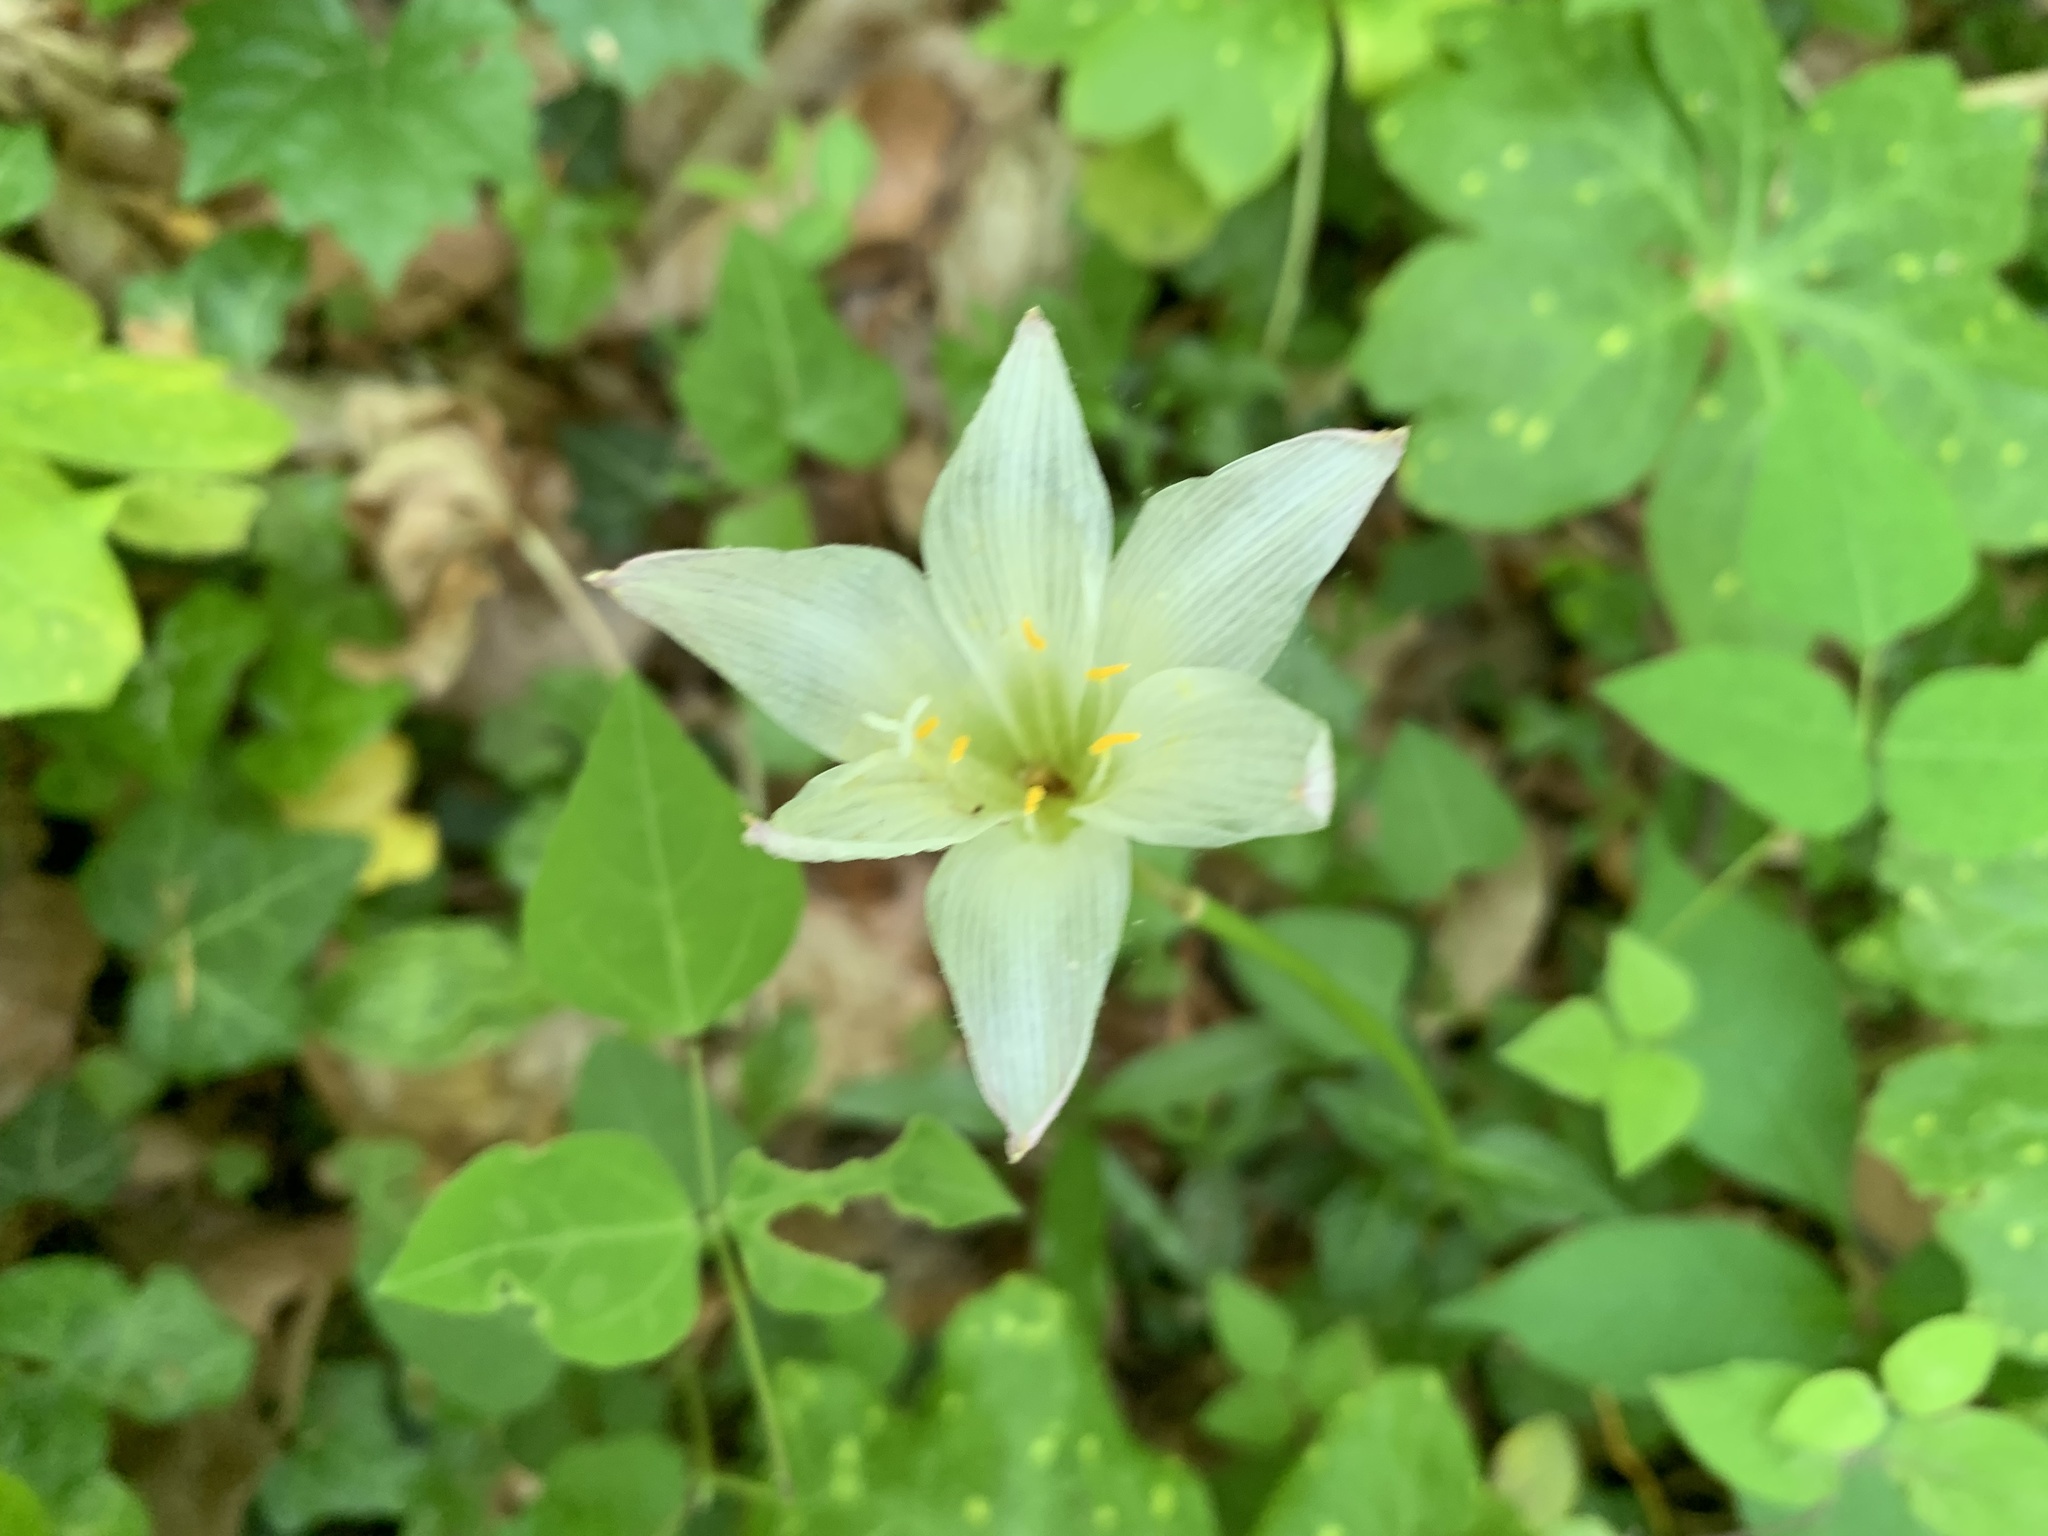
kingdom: Plantae
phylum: Tracheophyta
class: Liliopsida
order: Asparagales
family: Amaryllidaceae
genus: Zephyranthes
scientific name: Zephyranthes atamasco
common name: Atamasco lily
